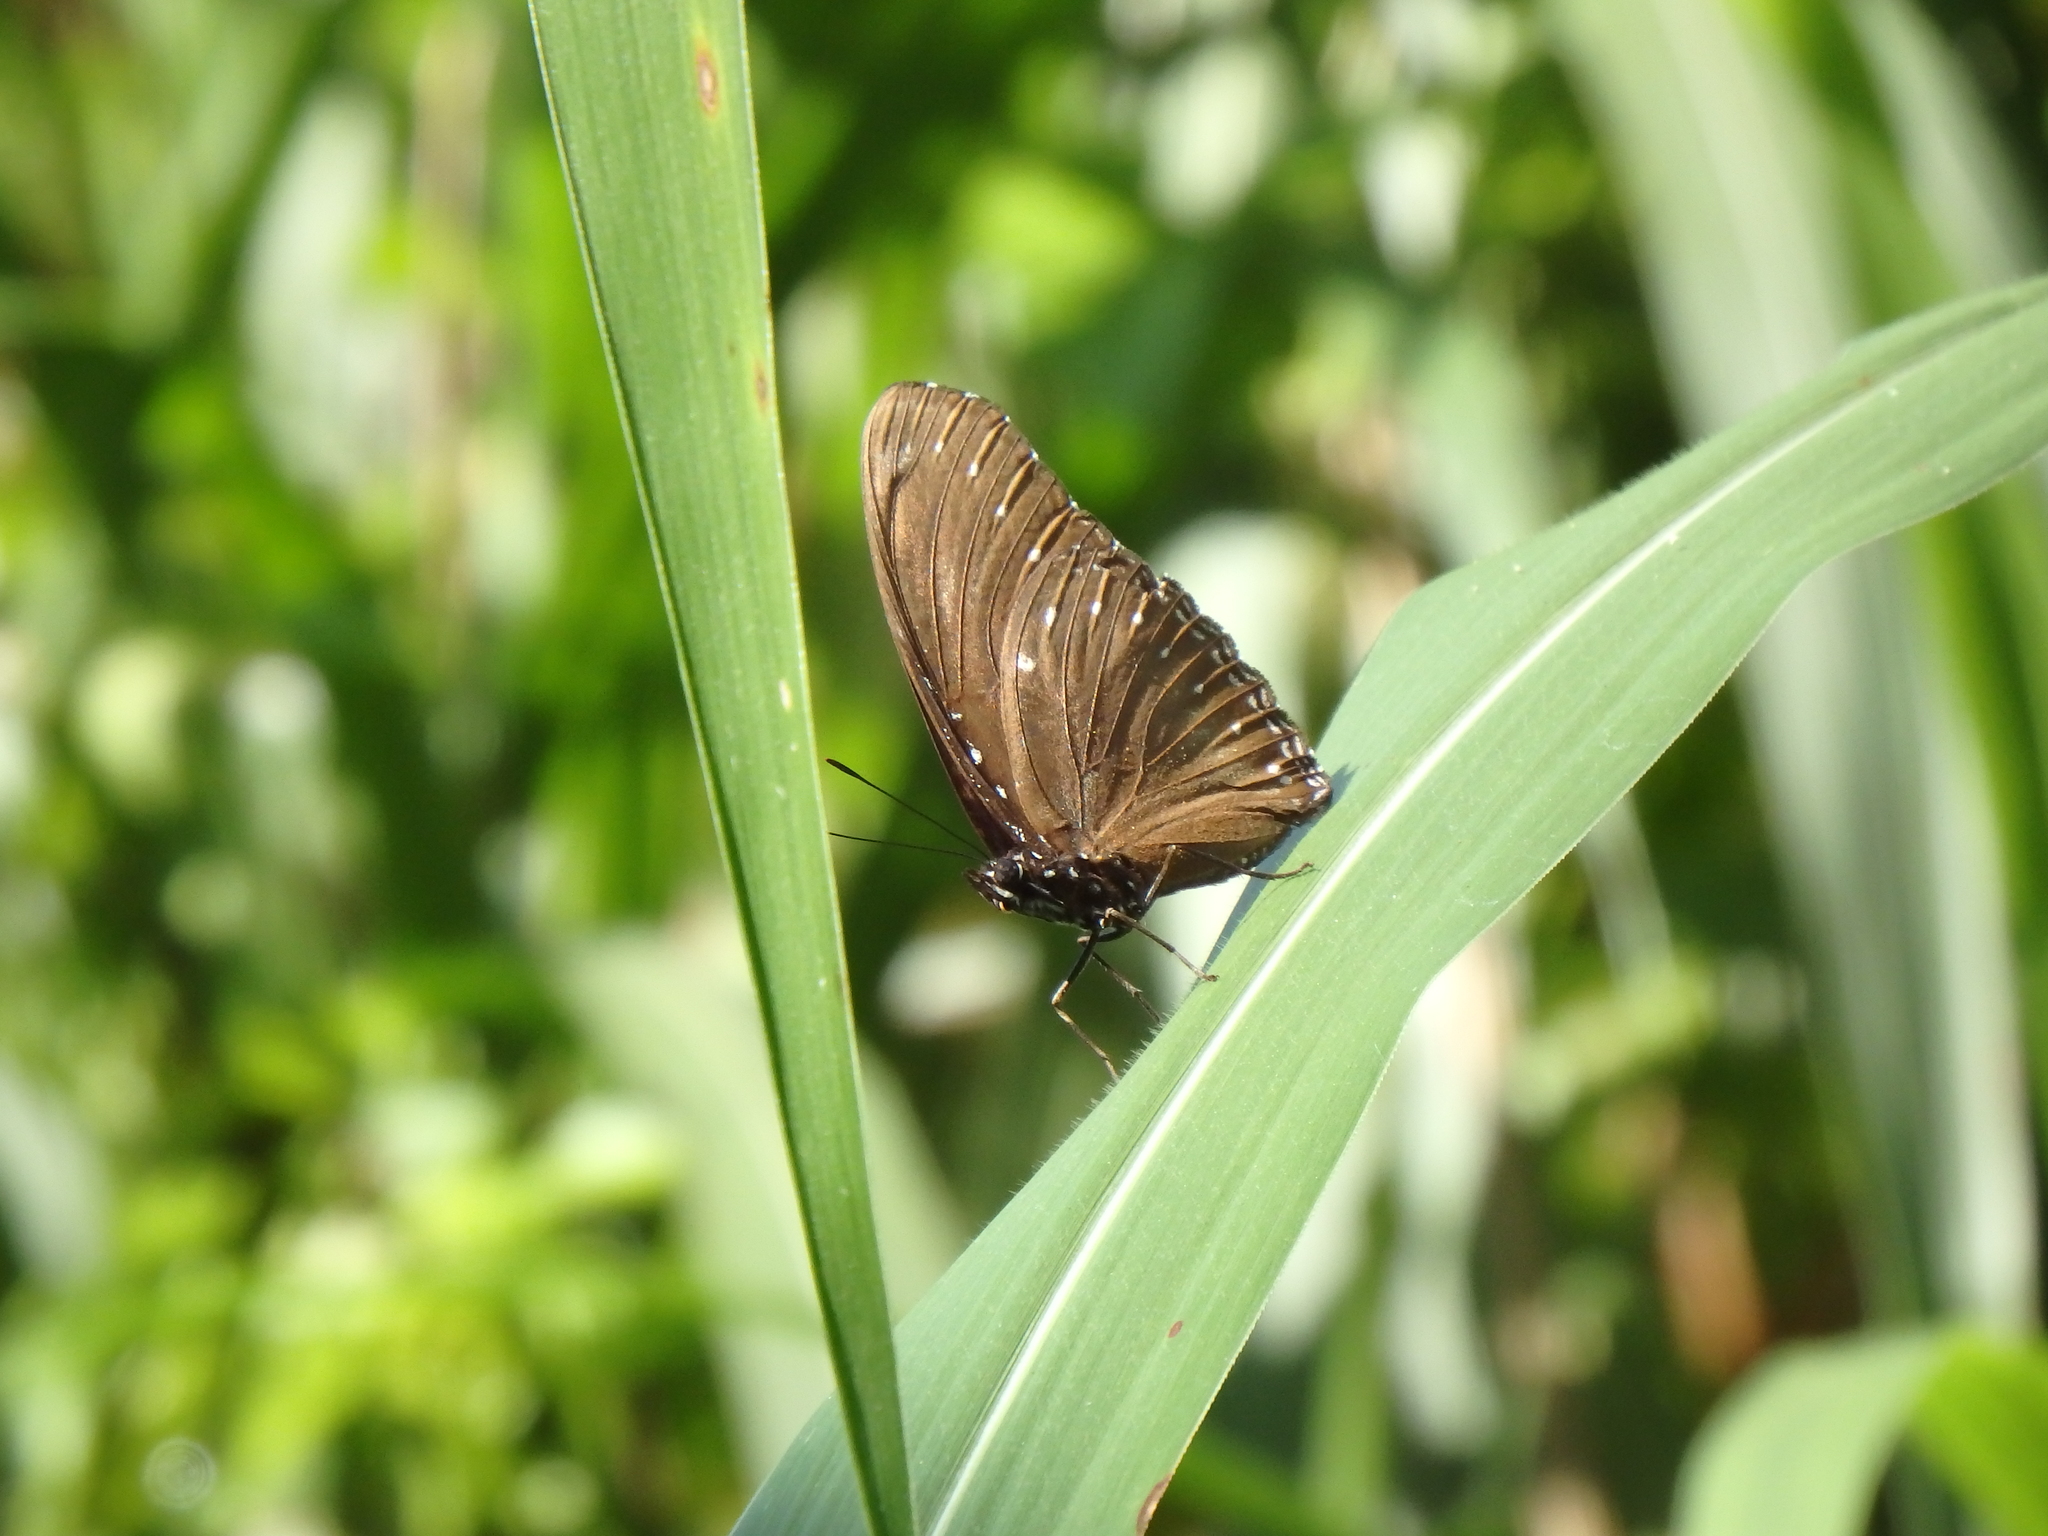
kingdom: Animalia
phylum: Arthropoda
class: Insecta
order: Lepidoptera
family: Nymphalidae
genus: Hypolimnas
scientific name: Hypolimnas anomala
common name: Malayan eggfly
